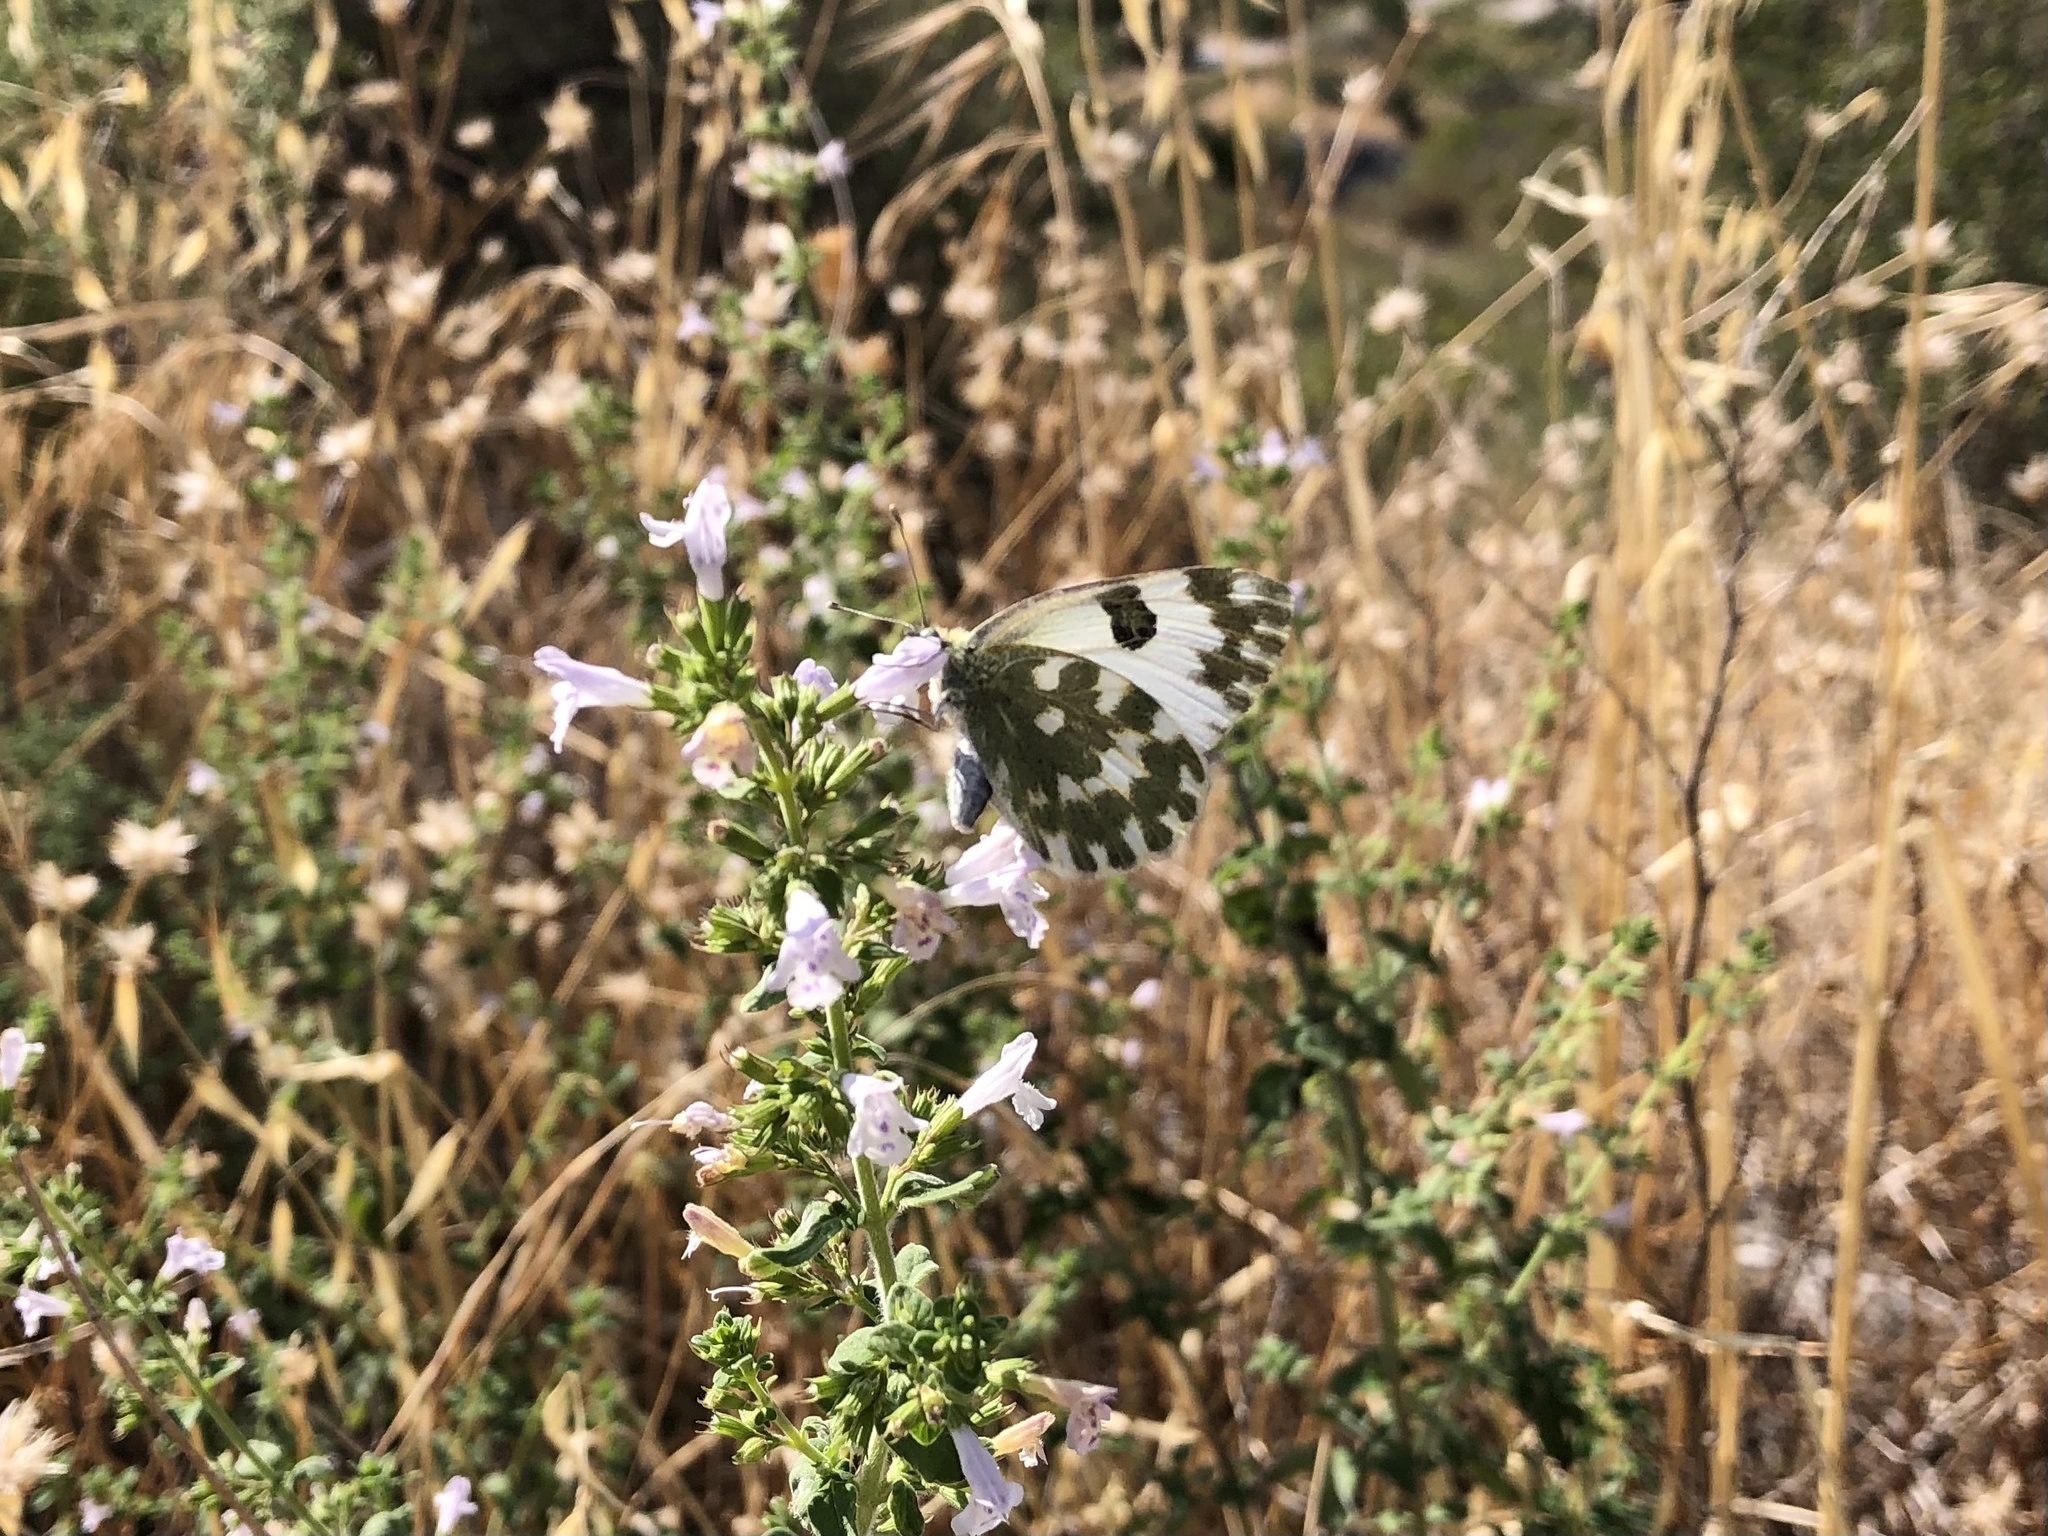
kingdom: Animalia
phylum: Arthropoda
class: Insecta
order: Lepidoptera
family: Pieridae
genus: Pontia
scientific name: Pontia edusa
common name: Eastern bath white
